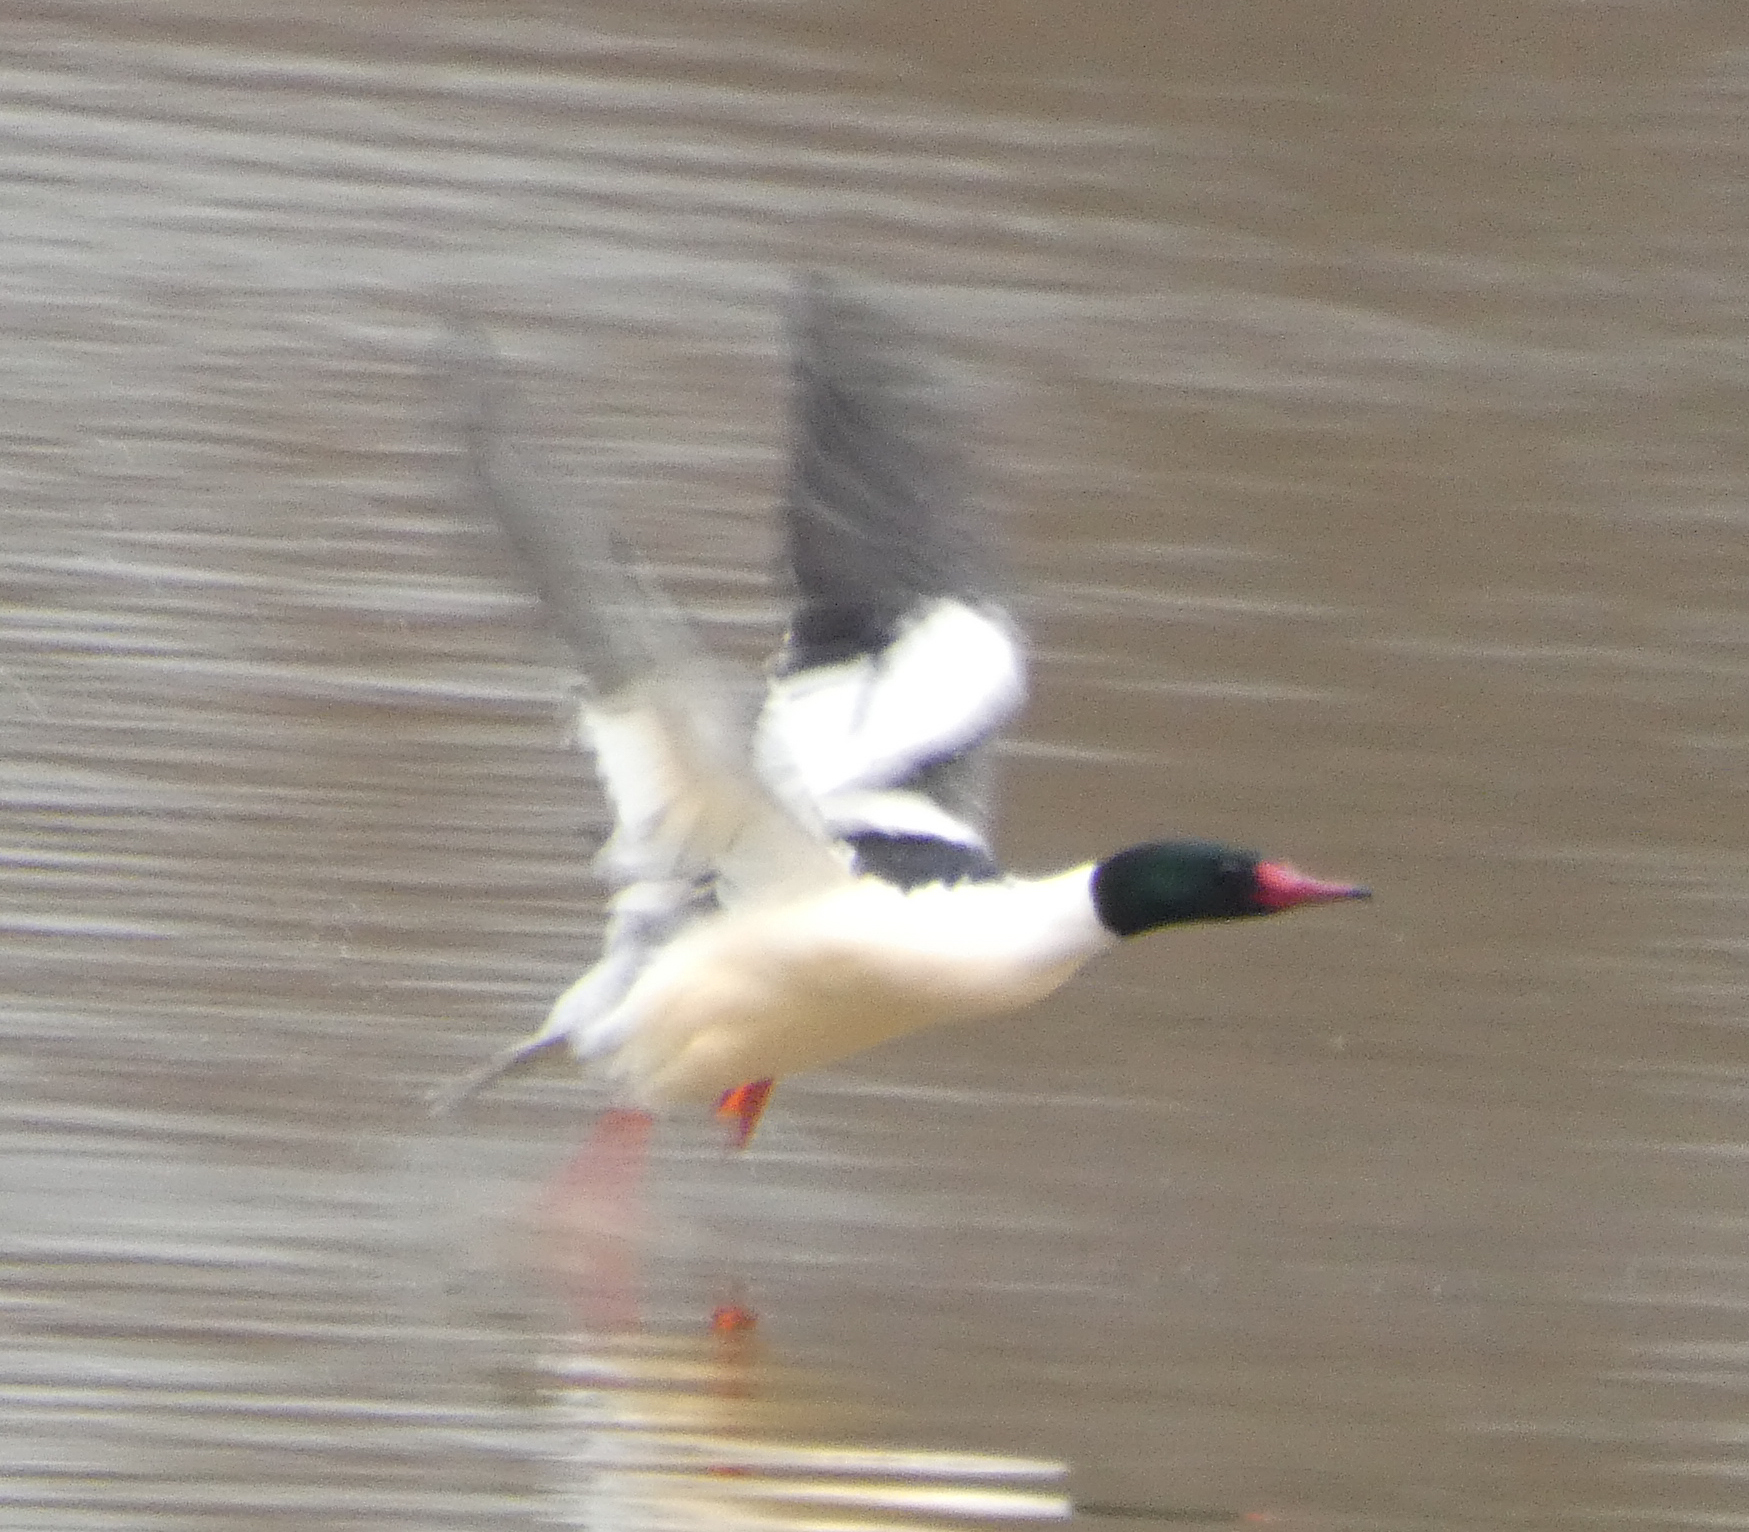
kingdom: Animalia
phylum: Chordata
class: Aves
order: Anseriformes
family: Anatidae
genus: Mergus
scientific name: Mergus merganser
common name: Common merganser
